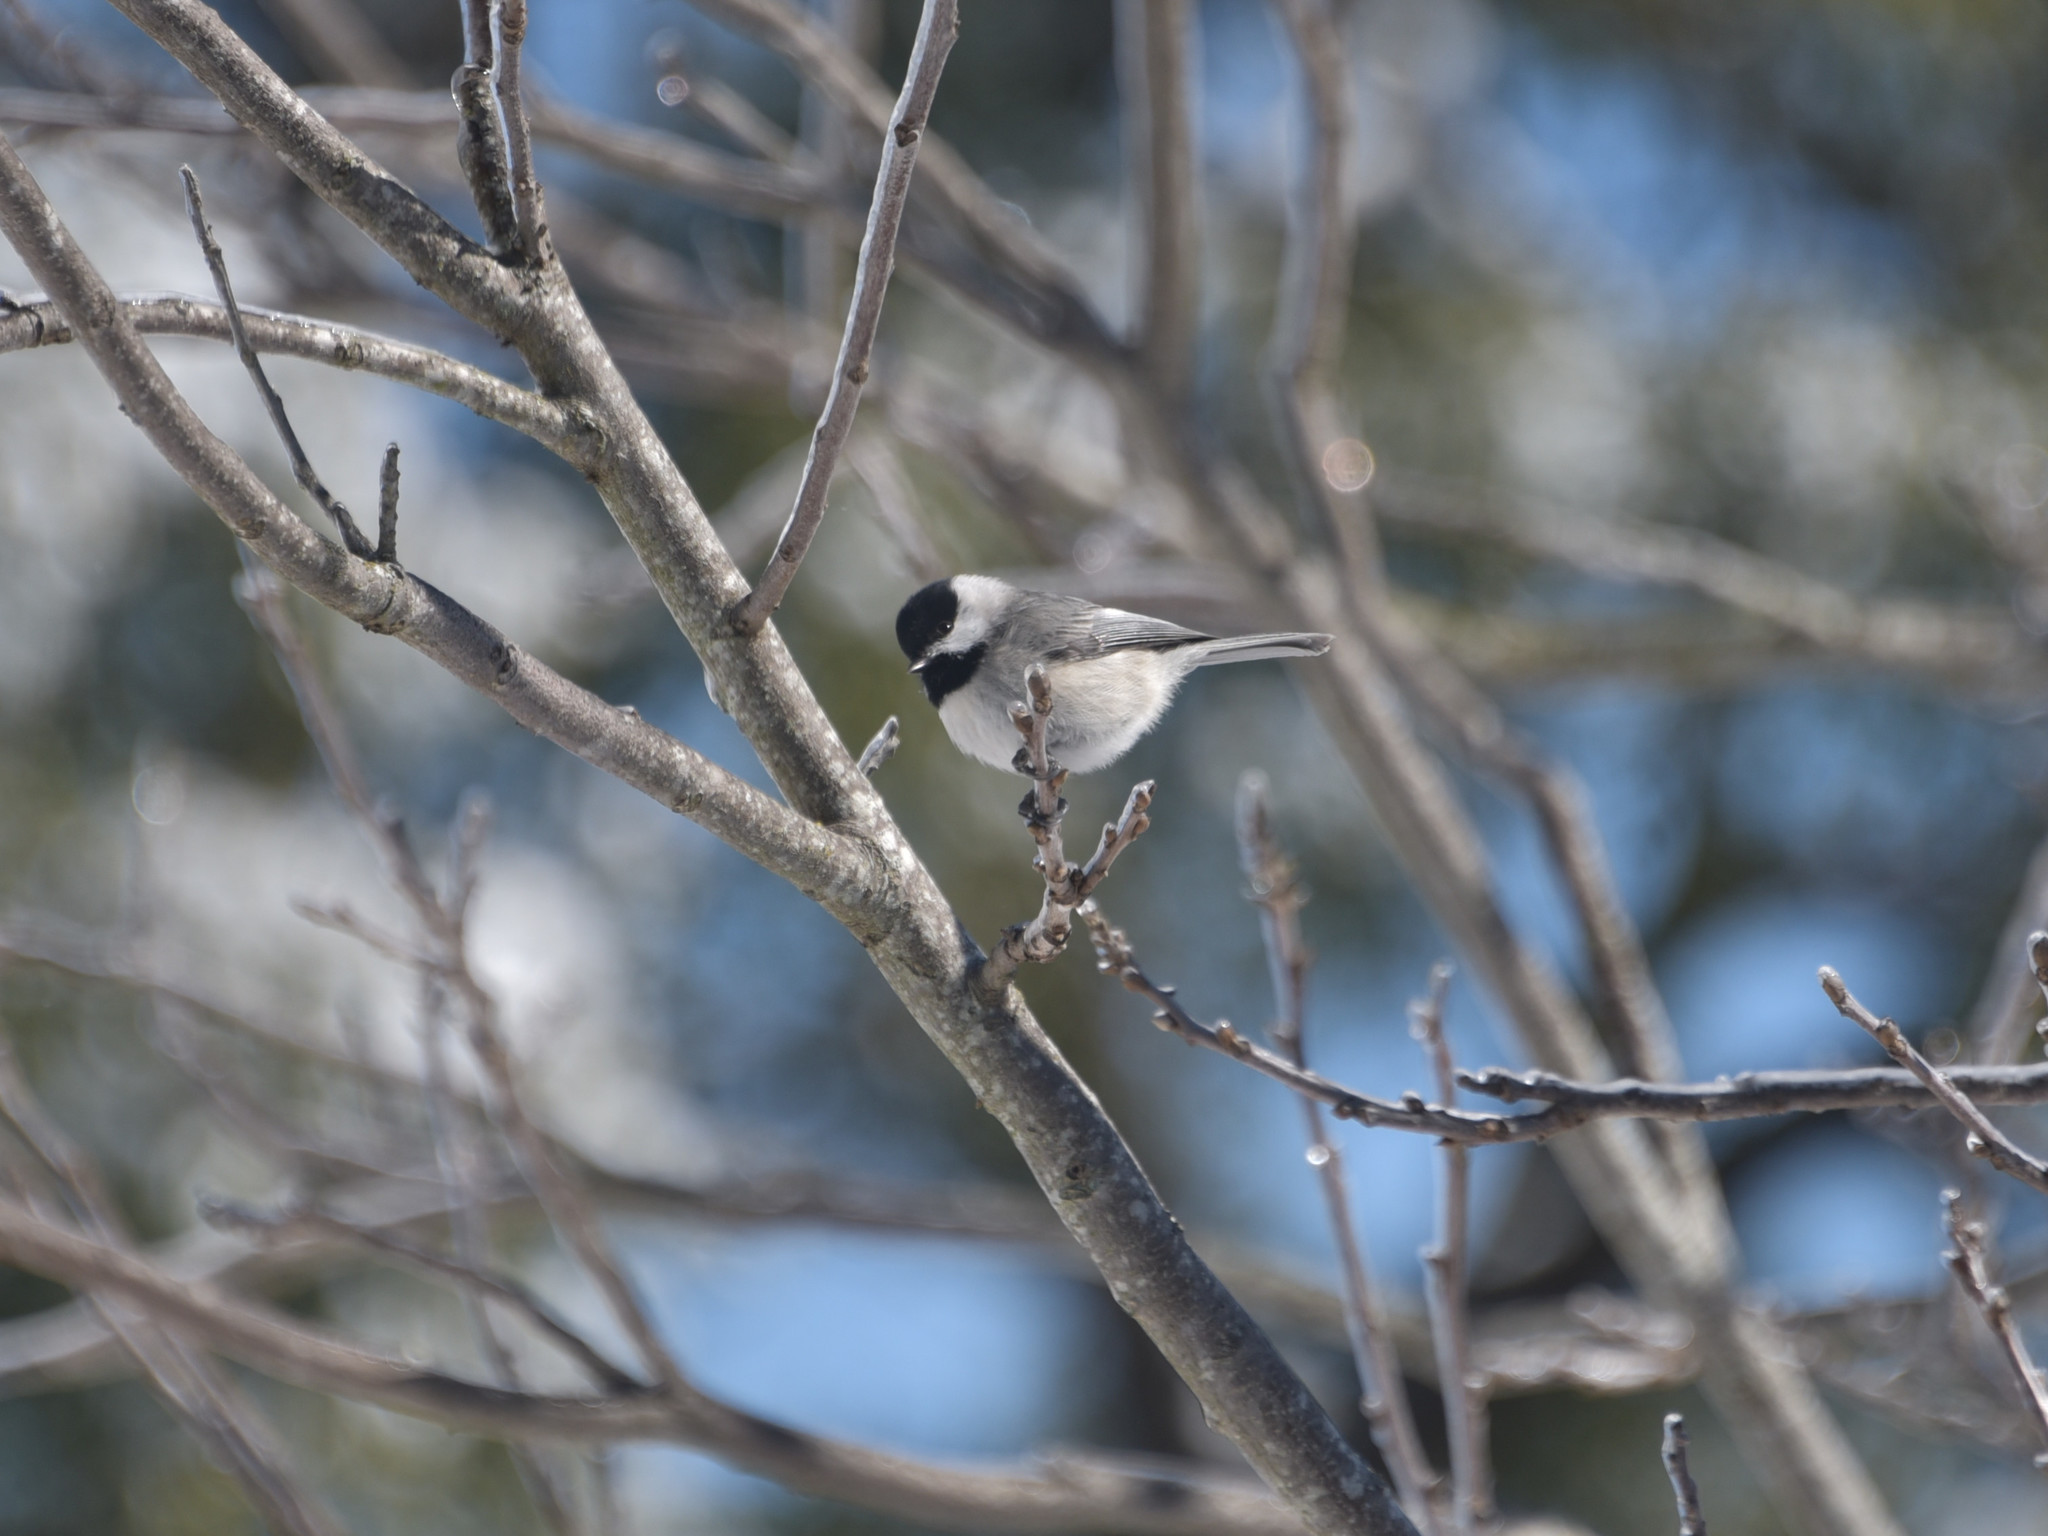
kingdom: Animalia
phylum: Chordata
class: Aves
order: Passeriformes
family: Paridae
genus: Poecile
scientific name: Poecile carolinensis
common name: Carolina chickadee
